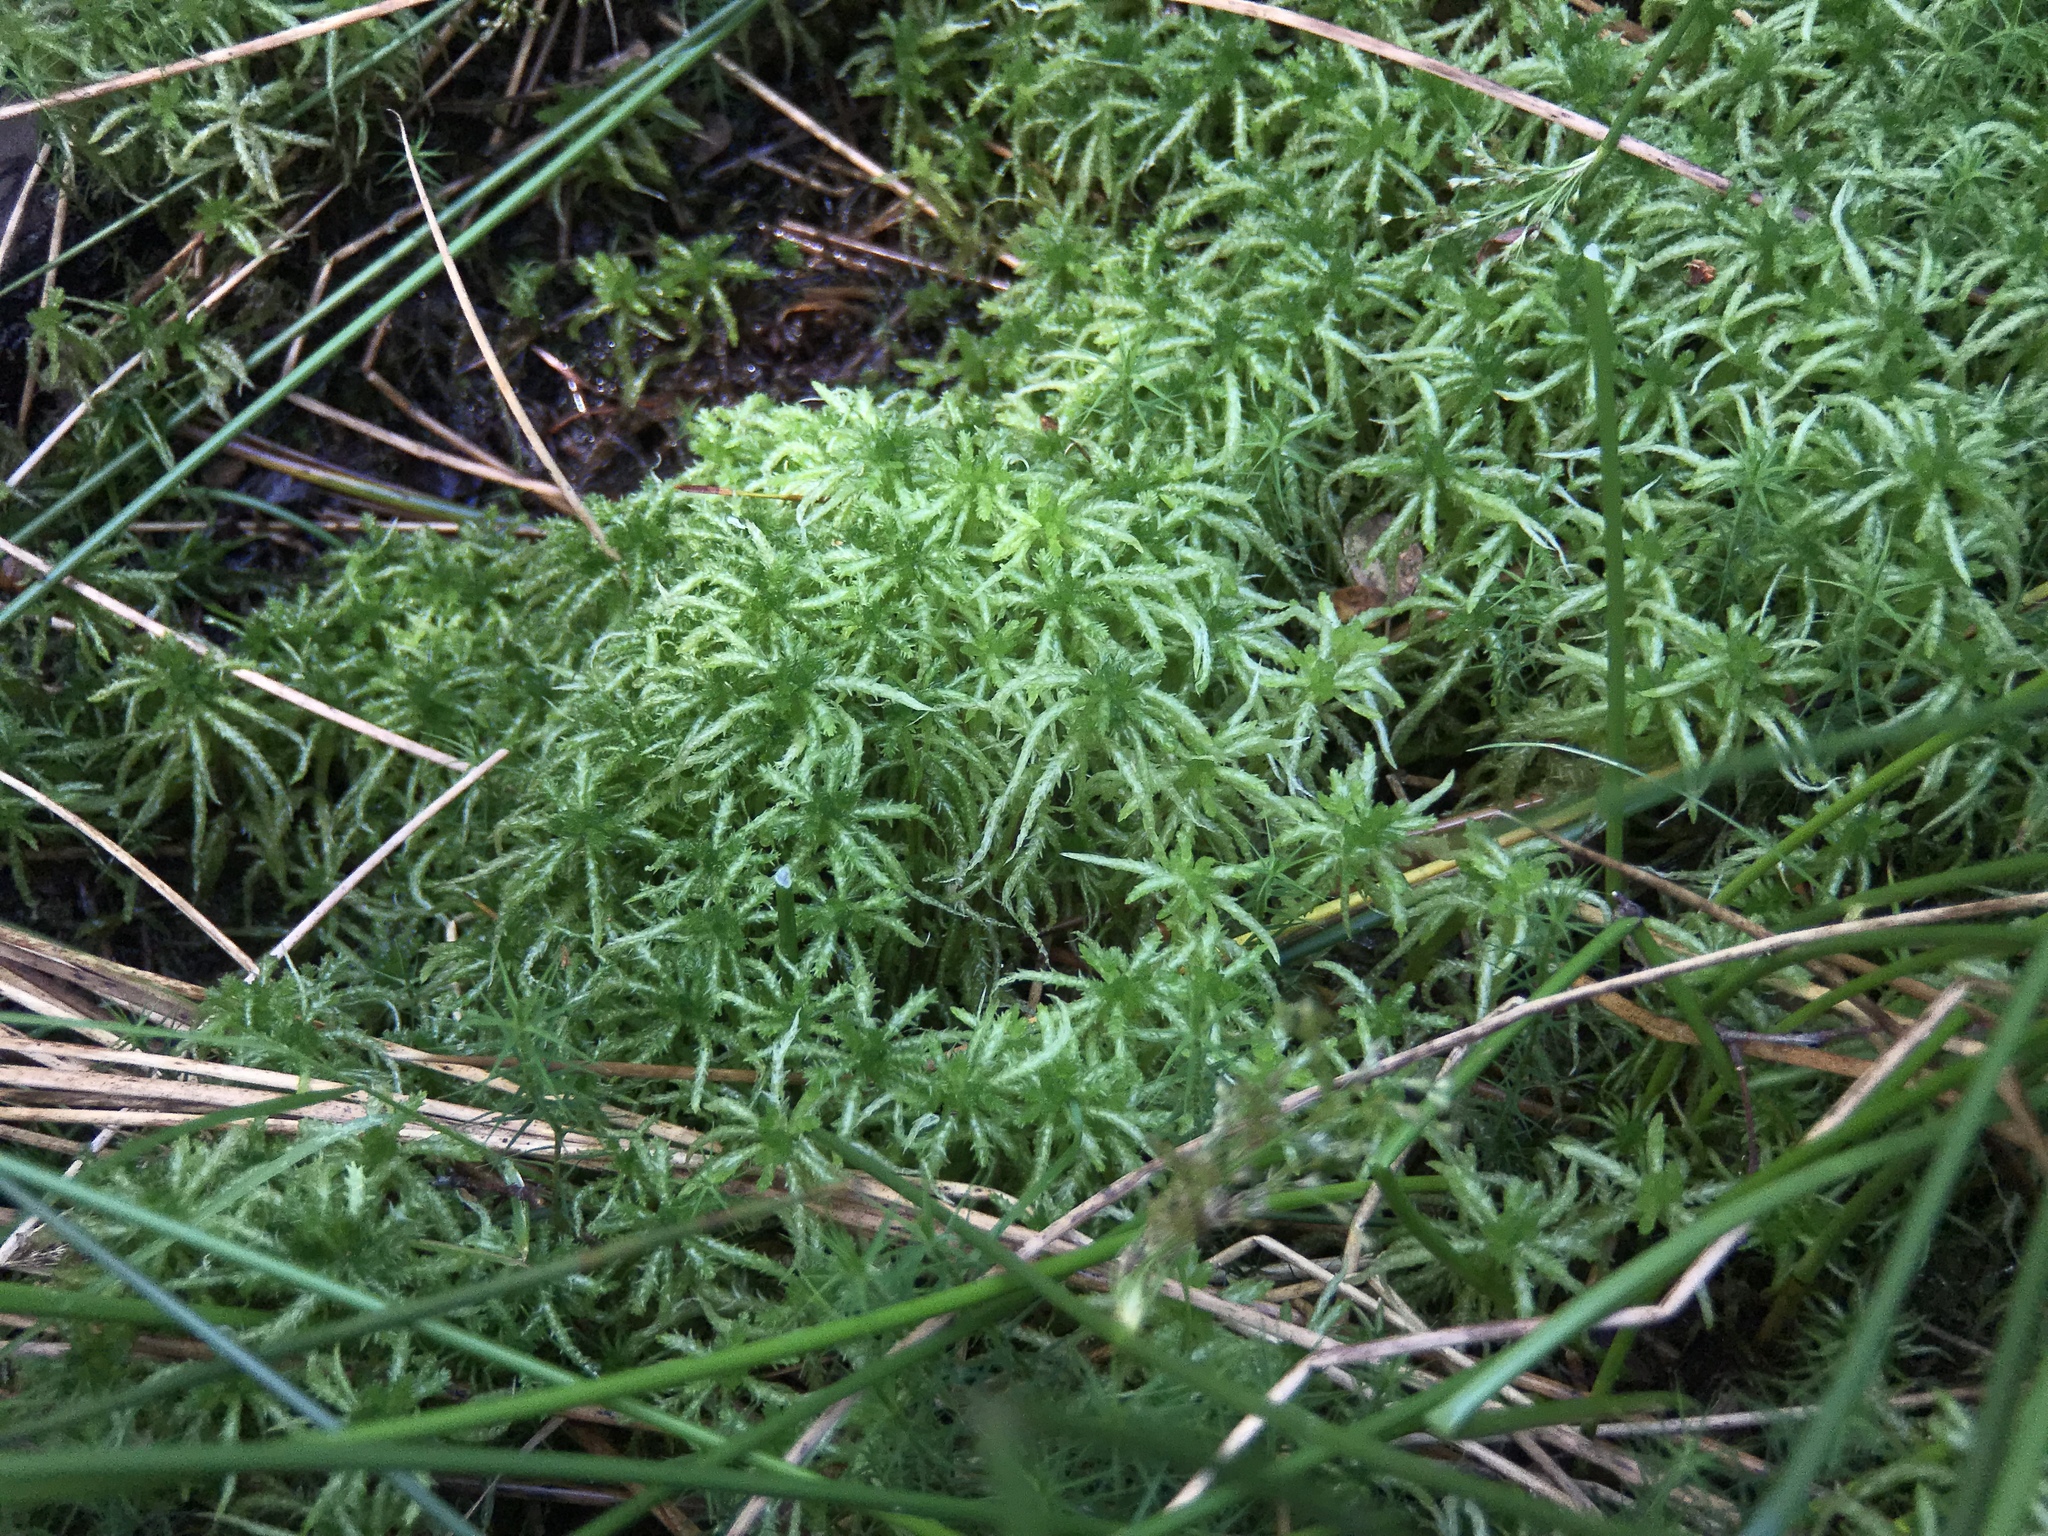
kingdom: Plantae
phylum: Bryophyta
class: Sphagnopsida
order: Sphagnales
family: Sphagnaceae
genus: Sphagnum
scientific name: Sphagnum squarrosum
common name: Shaggy peat moss
